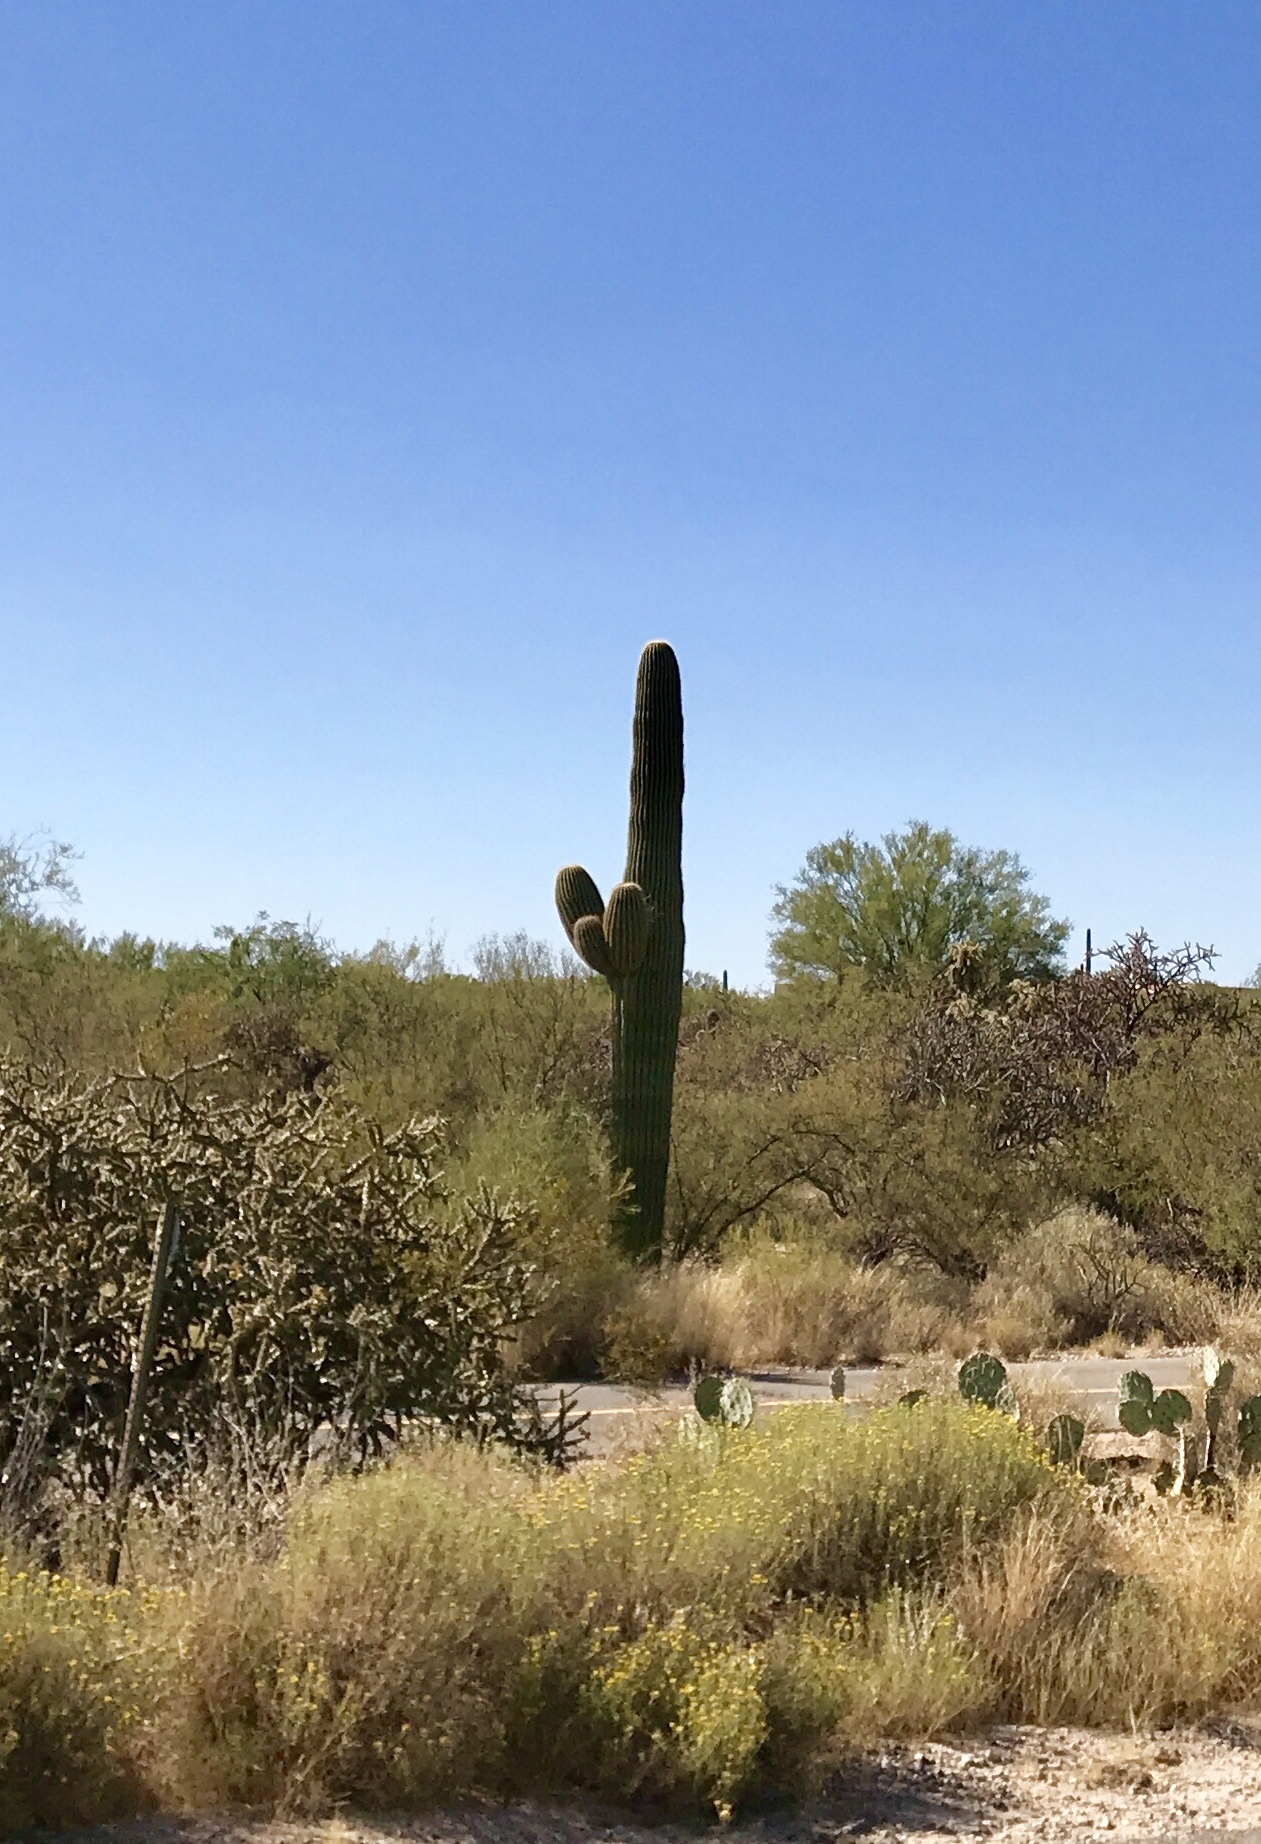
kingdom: Plantae
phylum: Tracheophyta
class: Magnoliopsida
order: Caryophyllales
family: Cactaceae
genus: Carnegiea
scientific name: Carnegiea gigantea
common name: Saguaro
